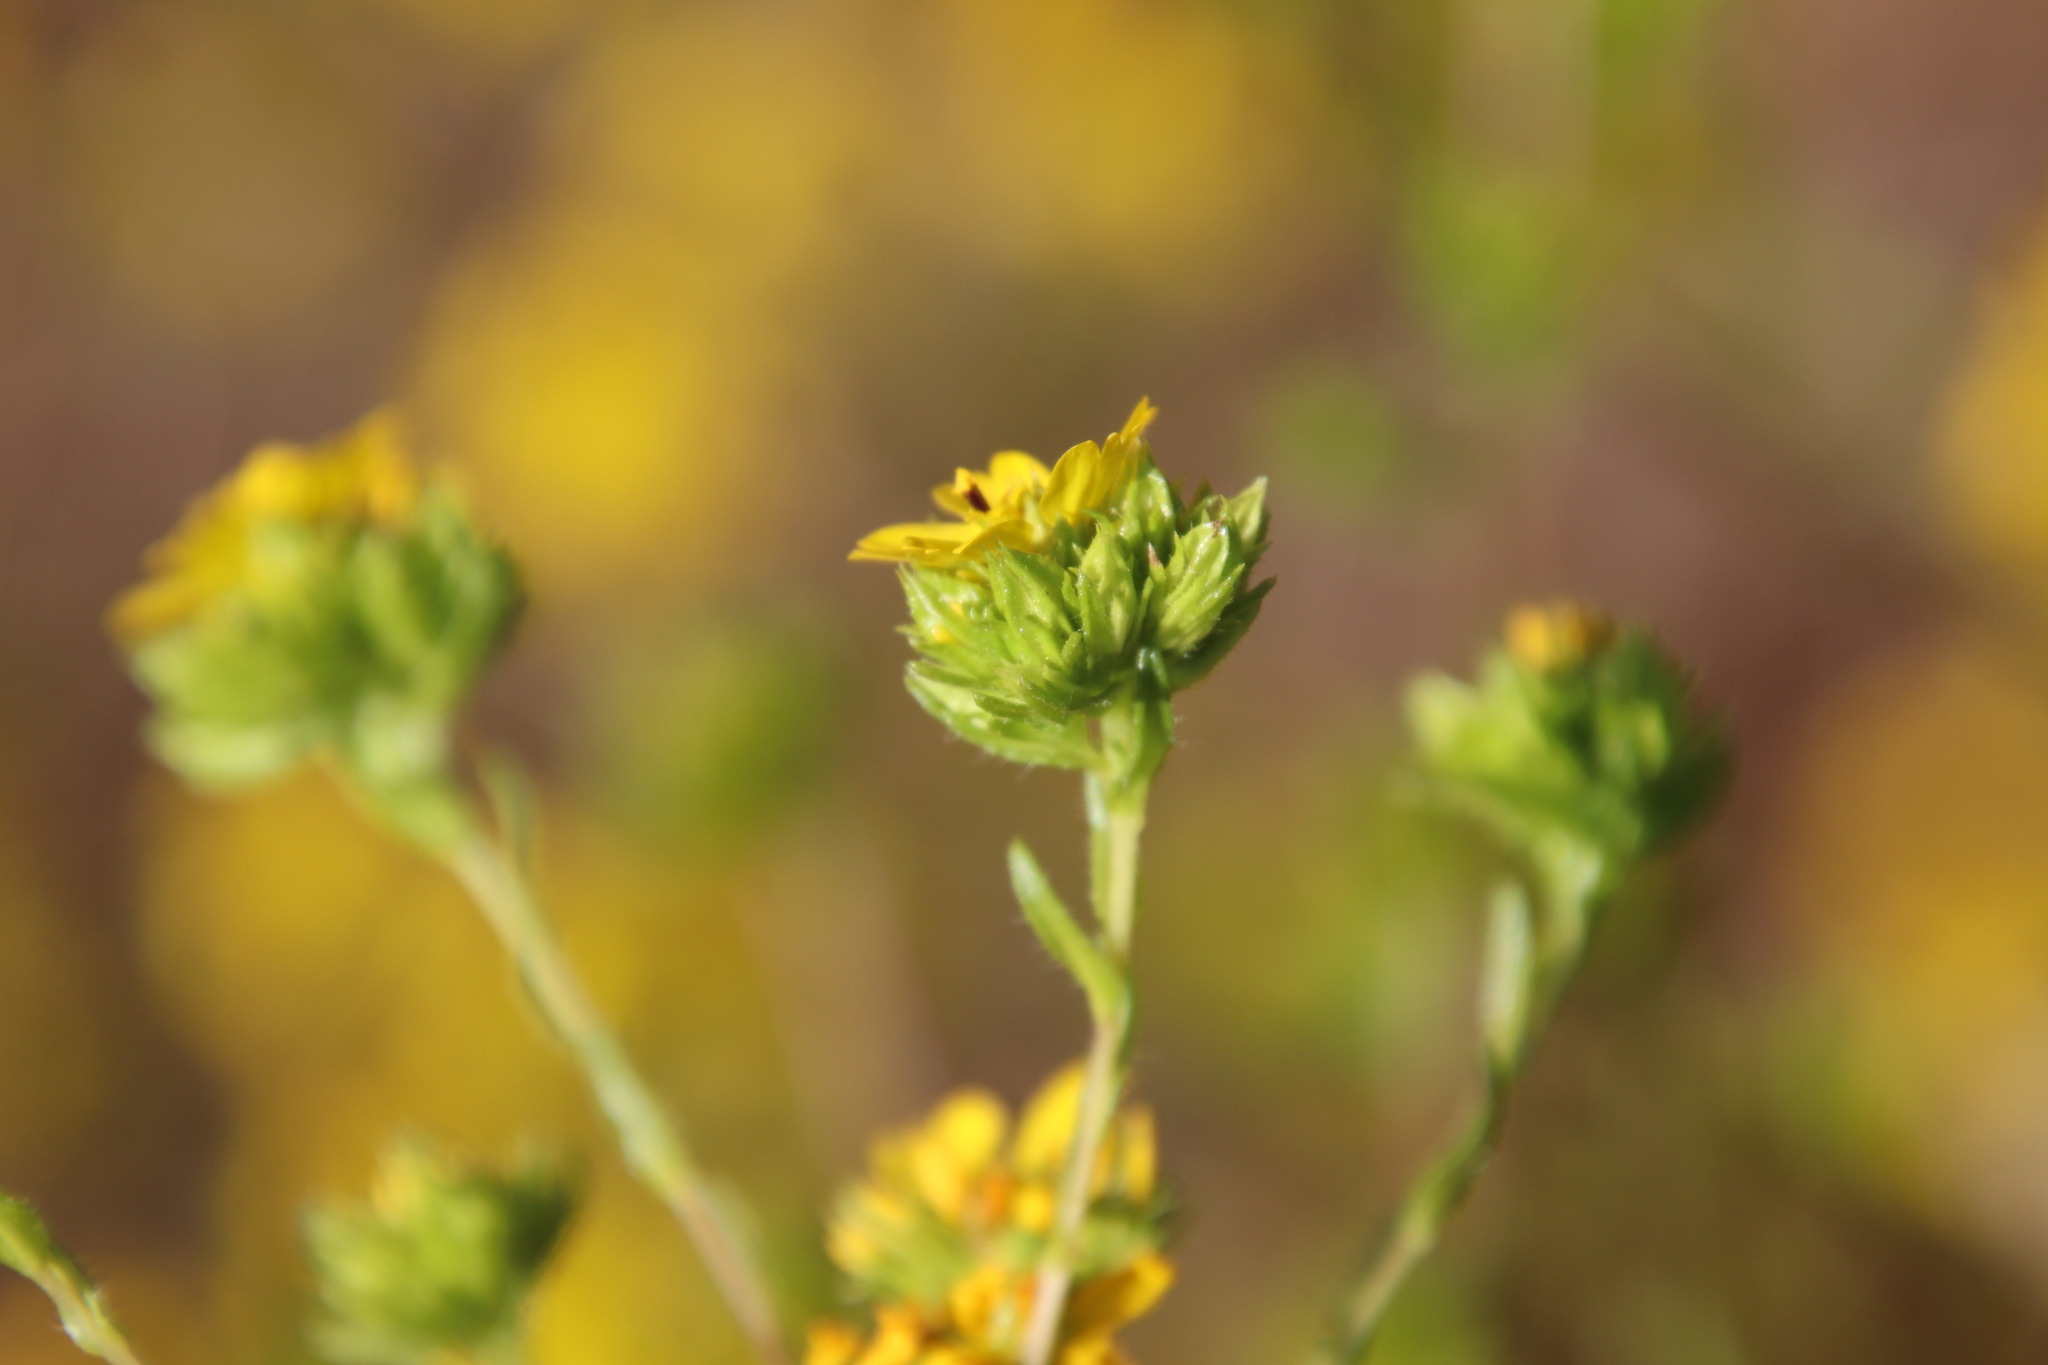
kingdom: Plantae
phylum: Tracheophyta
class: Magnoliopsida
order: Asterales
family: Asteraceae
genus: Deinandra
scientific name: Deinandra fasciculata
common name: Clustered tarweed
